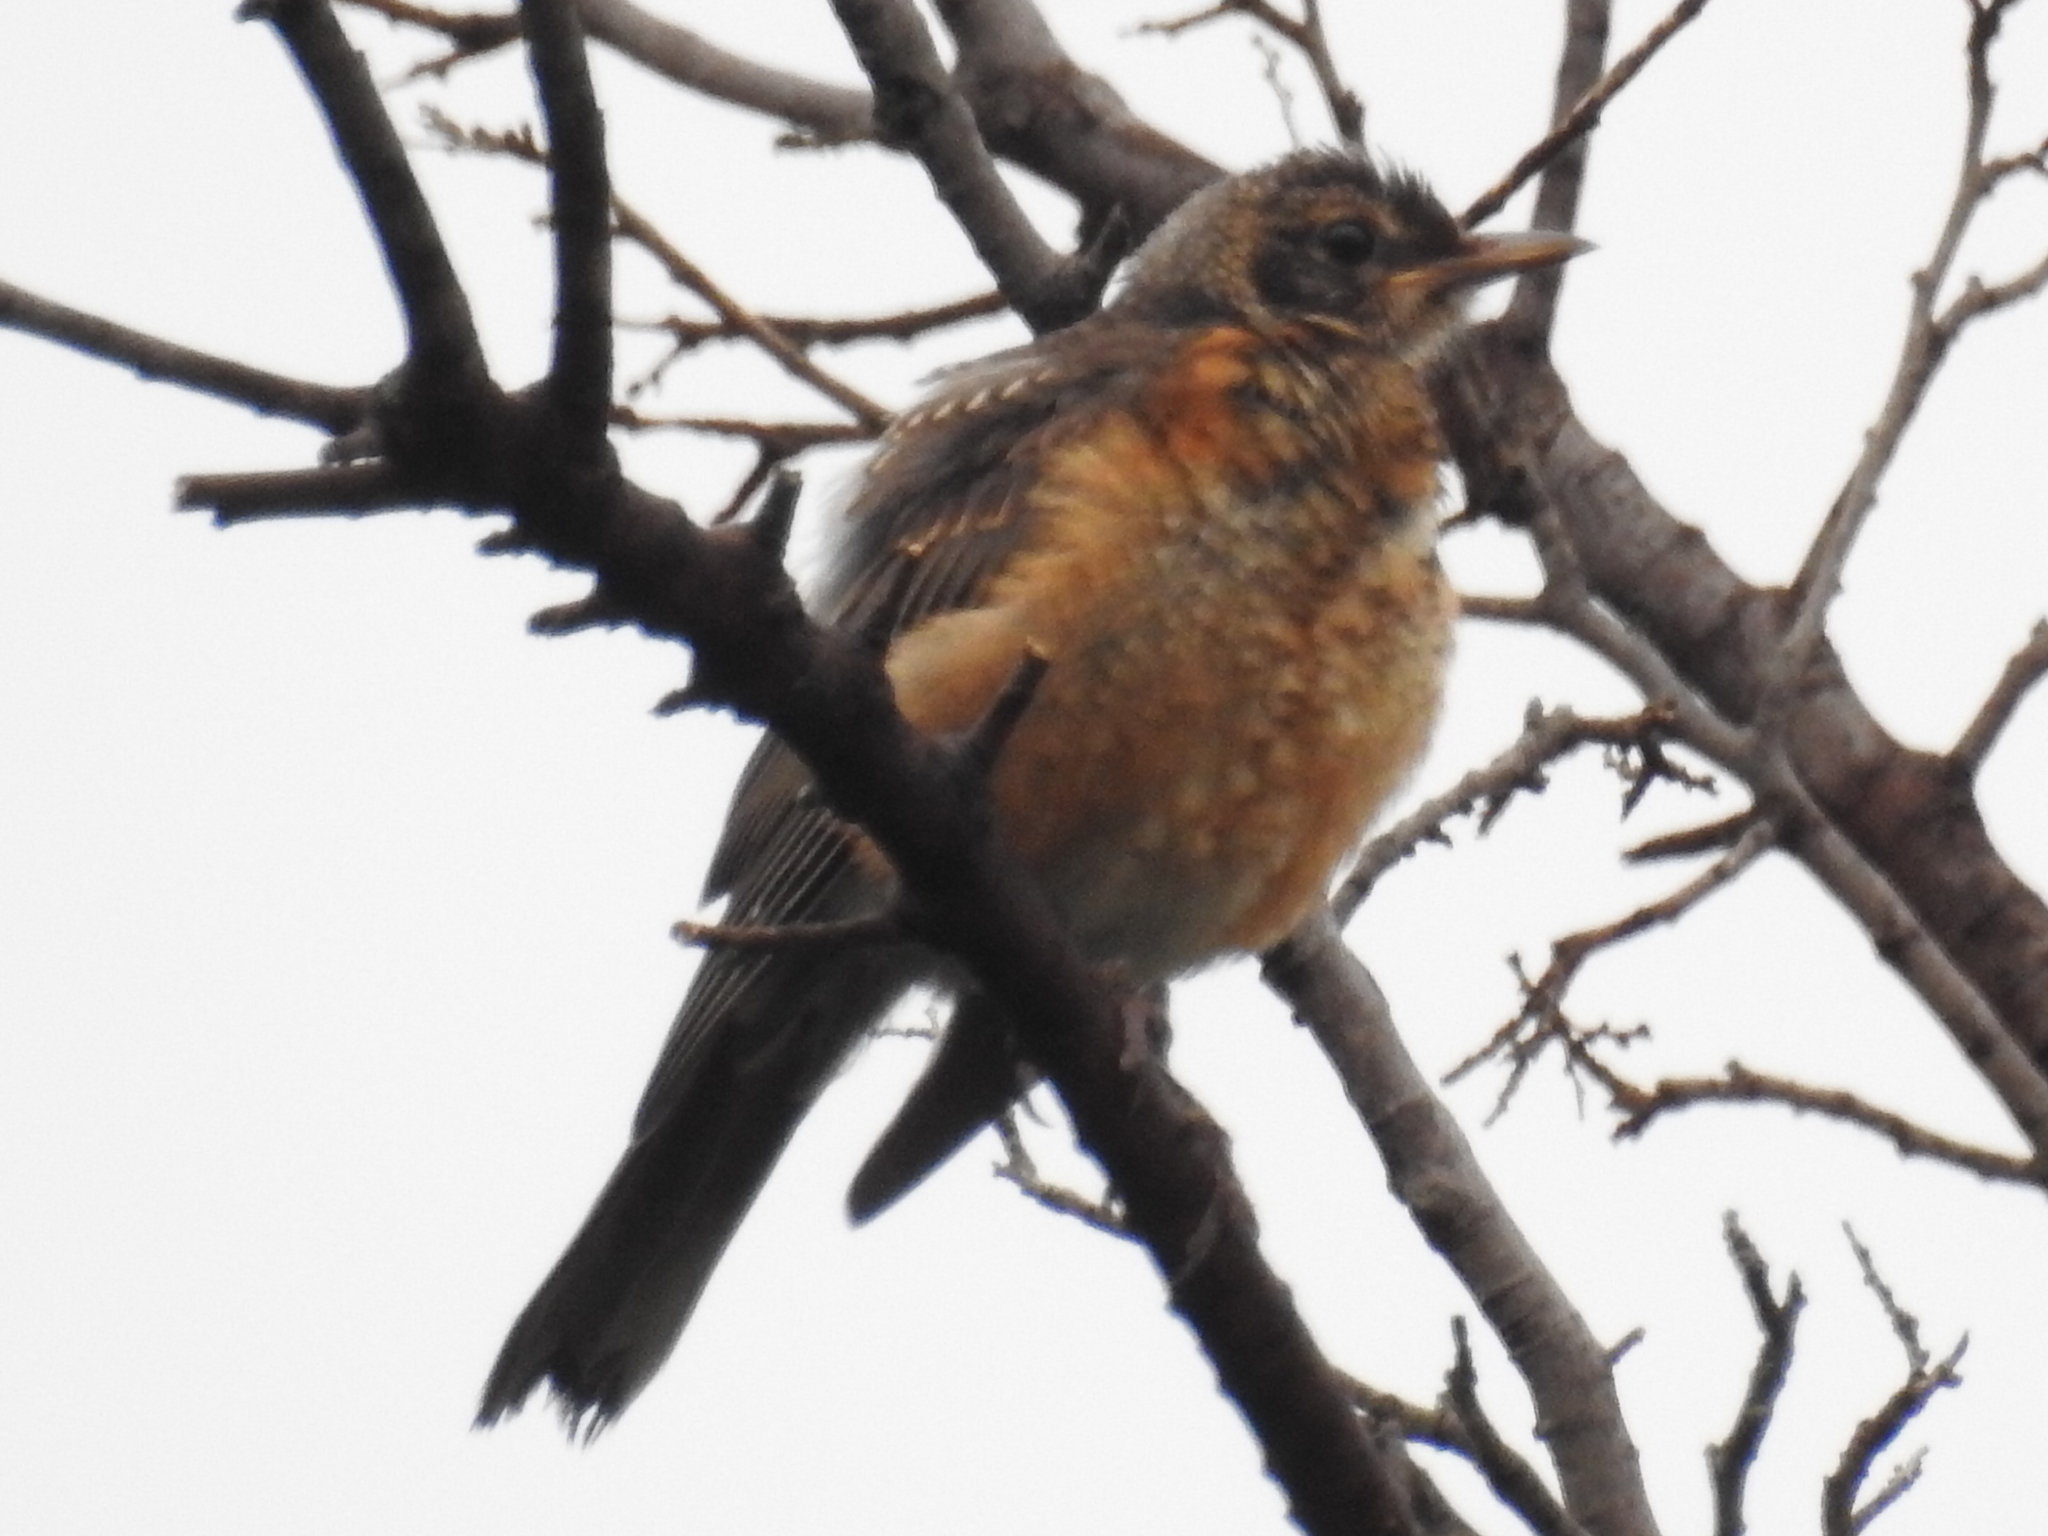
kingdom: Animalia
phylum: Chordata
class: Aves
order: Passeriformes
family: Turdidae
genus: Turdus
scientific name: Turdus migratorius
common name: American robin
